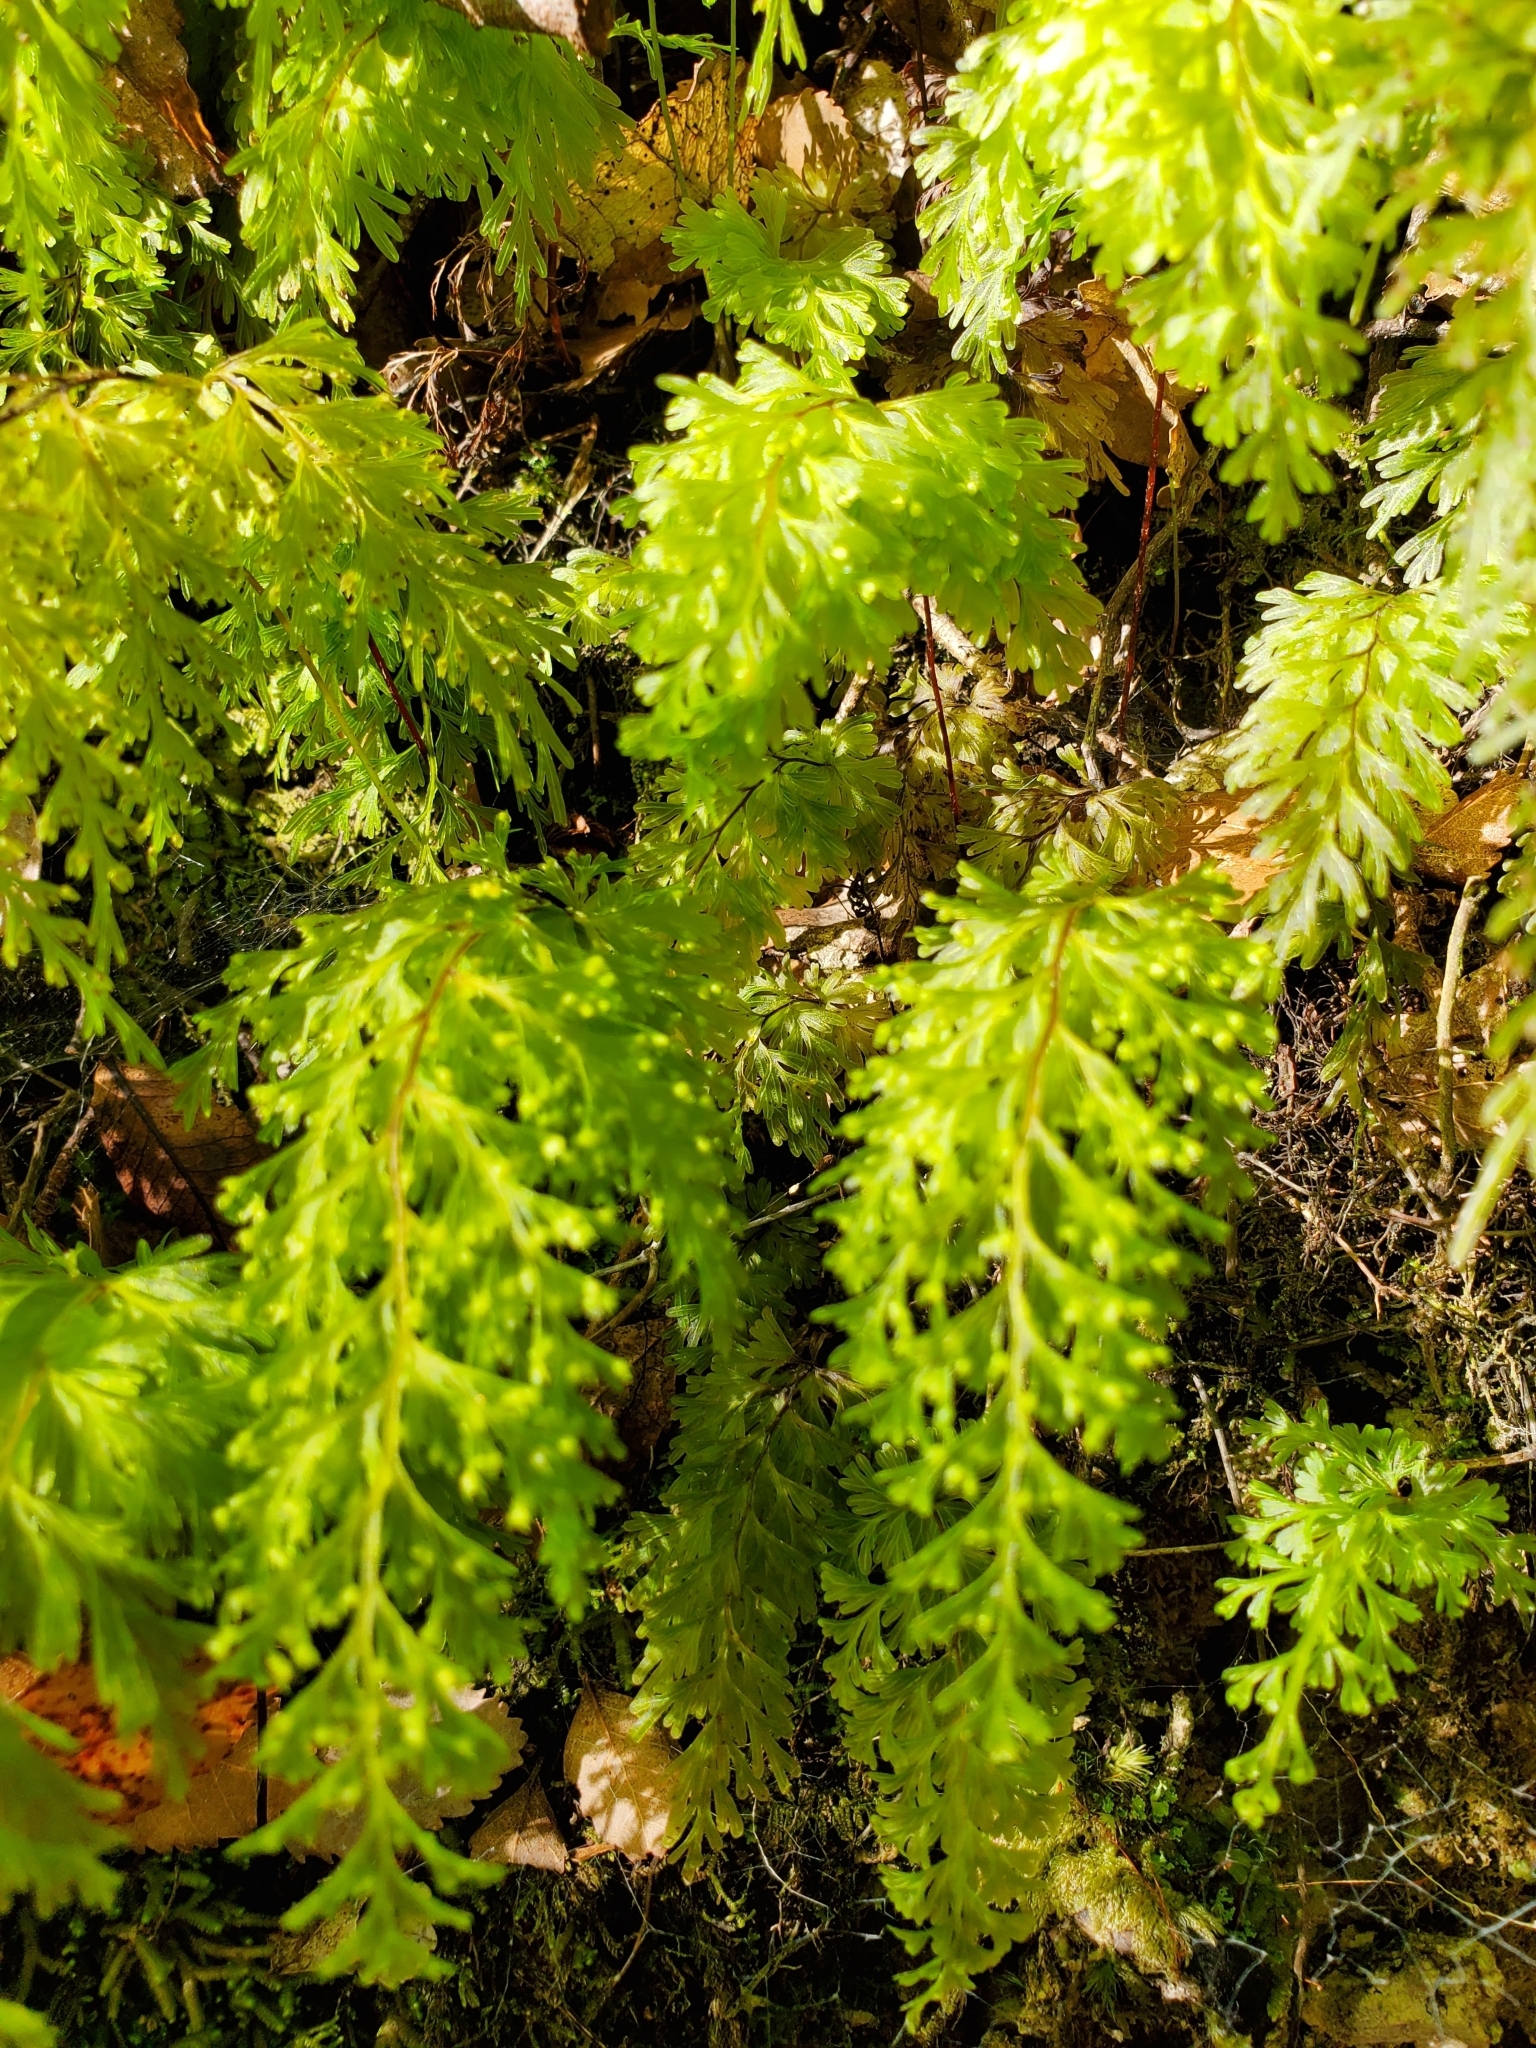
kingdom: Plantae
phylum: Tracheophyta
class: Polypodiopsida
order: Hymenophyllales
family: Hymenophyllaceae
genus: Hymenophyllum
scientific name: Hymenophyllum demissum
